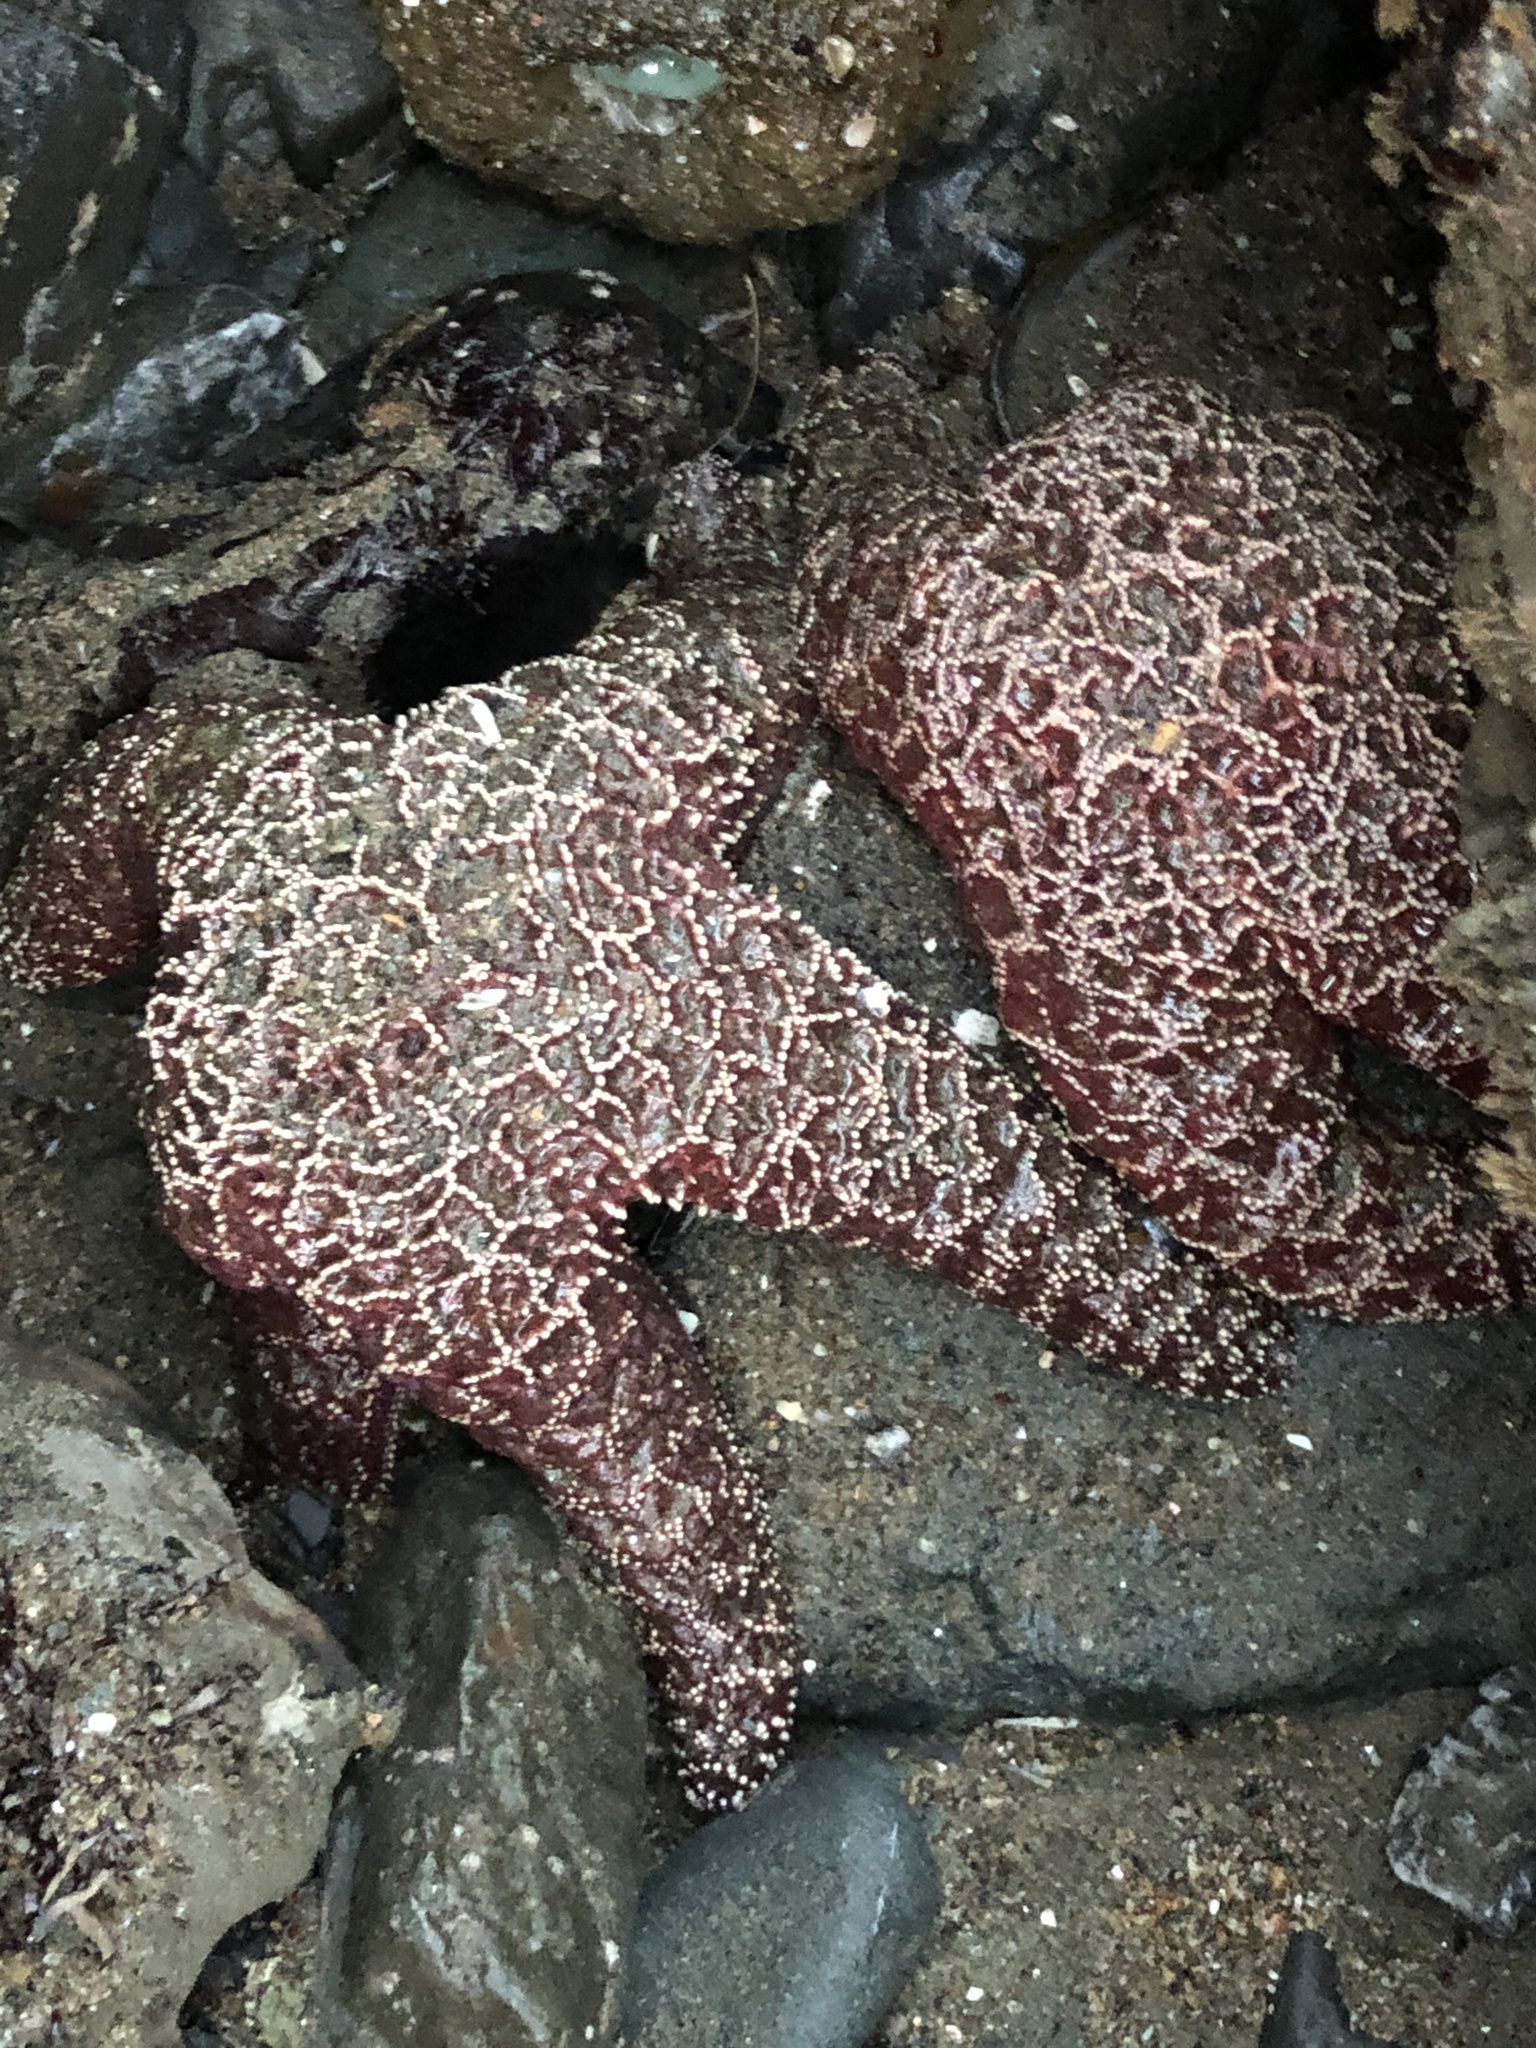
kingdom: Animalia
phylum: Echinodermata
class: Asteroidea
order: Forcipulatida
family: Asteriidae
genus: Pisaster
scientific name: Pisaster ochraceus
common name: Ochre stars
